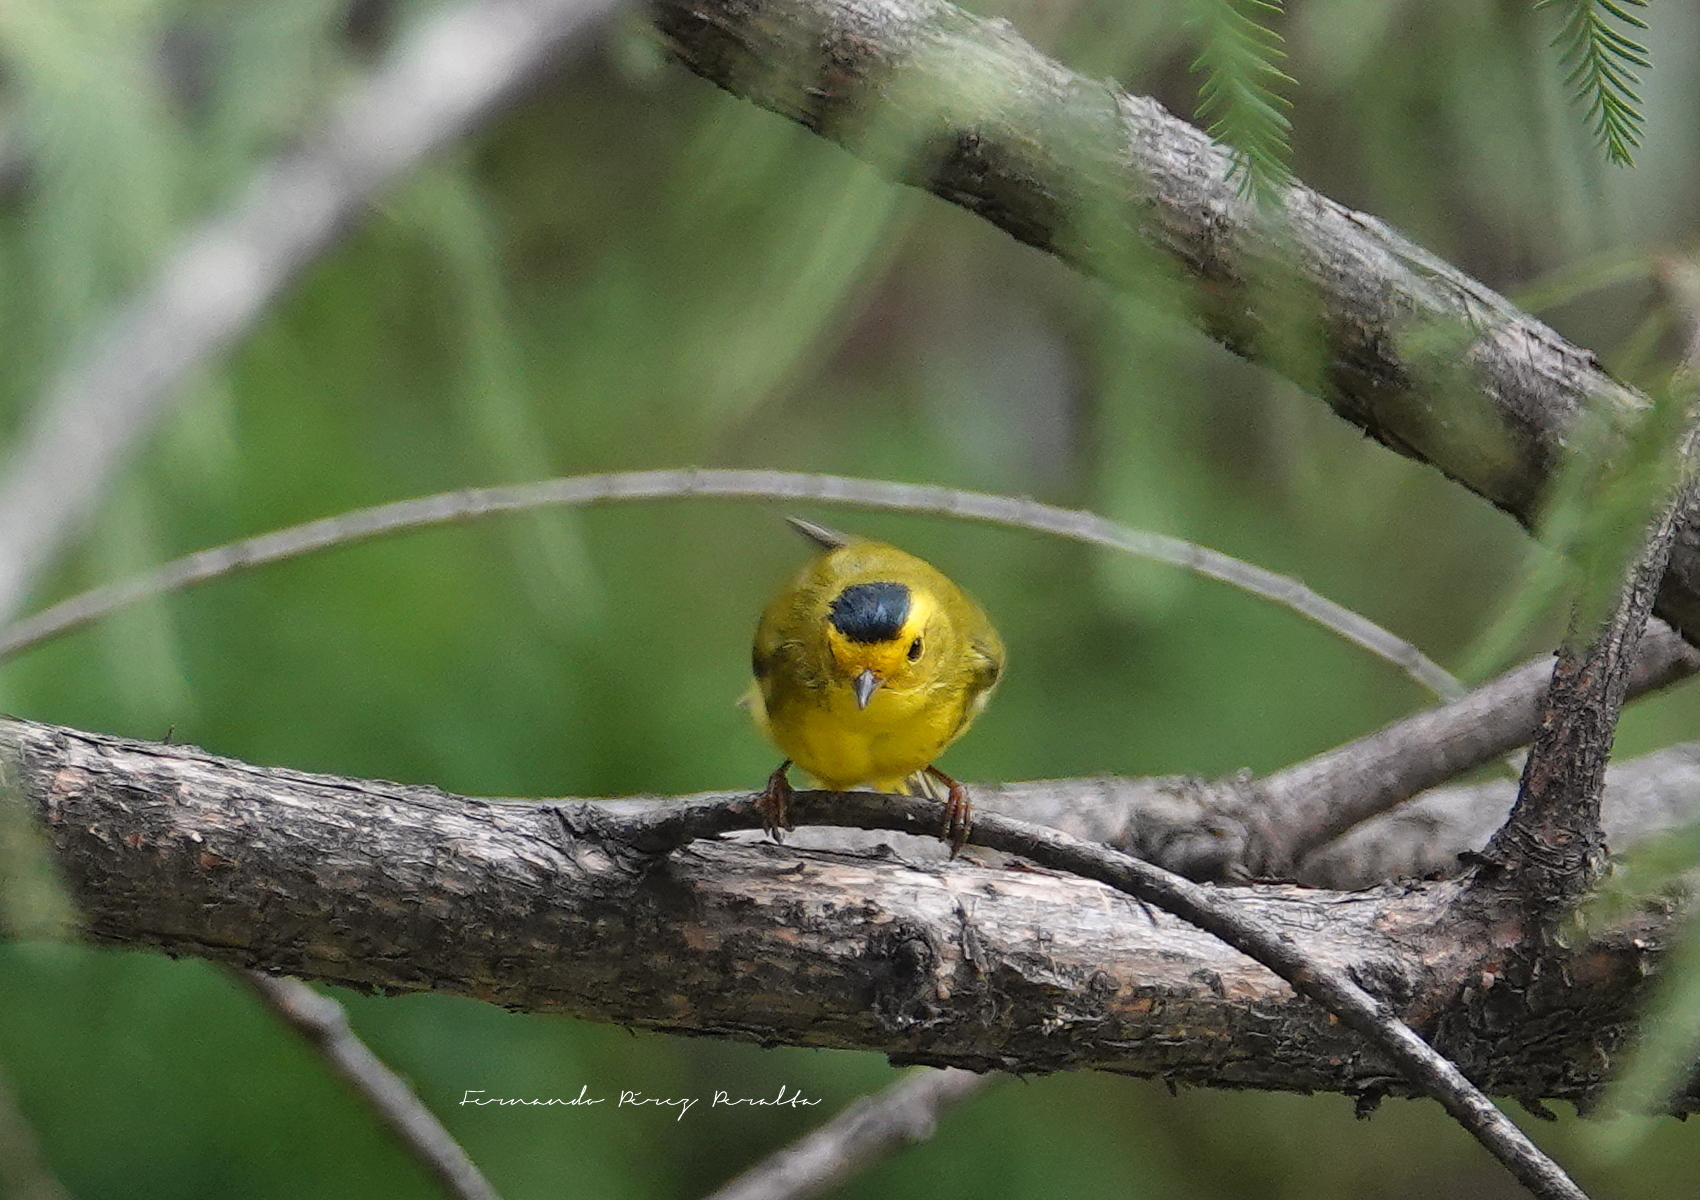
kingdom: Animalia
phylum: Chordata
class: Aves
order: Passeriformes
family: Parulidae
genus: Cardellina
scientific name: Cardellina pusilla
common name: Wilson's warbler
